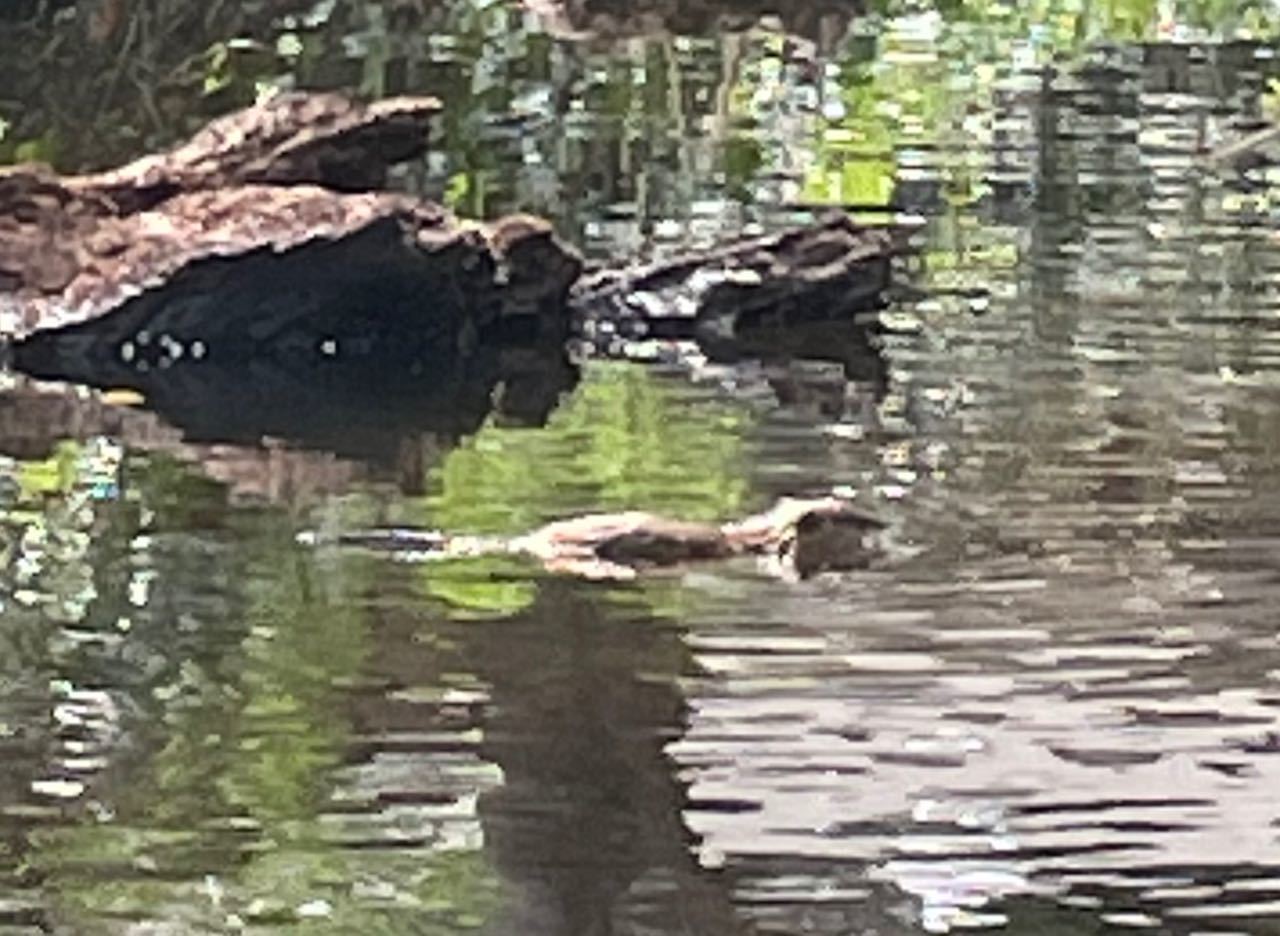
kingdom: Animalia
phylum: Chordata
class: Mammalia
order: Rodentia
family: Cricetidae
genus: Ondatra
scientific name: Ondatra zibethicus
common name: Muskrat
